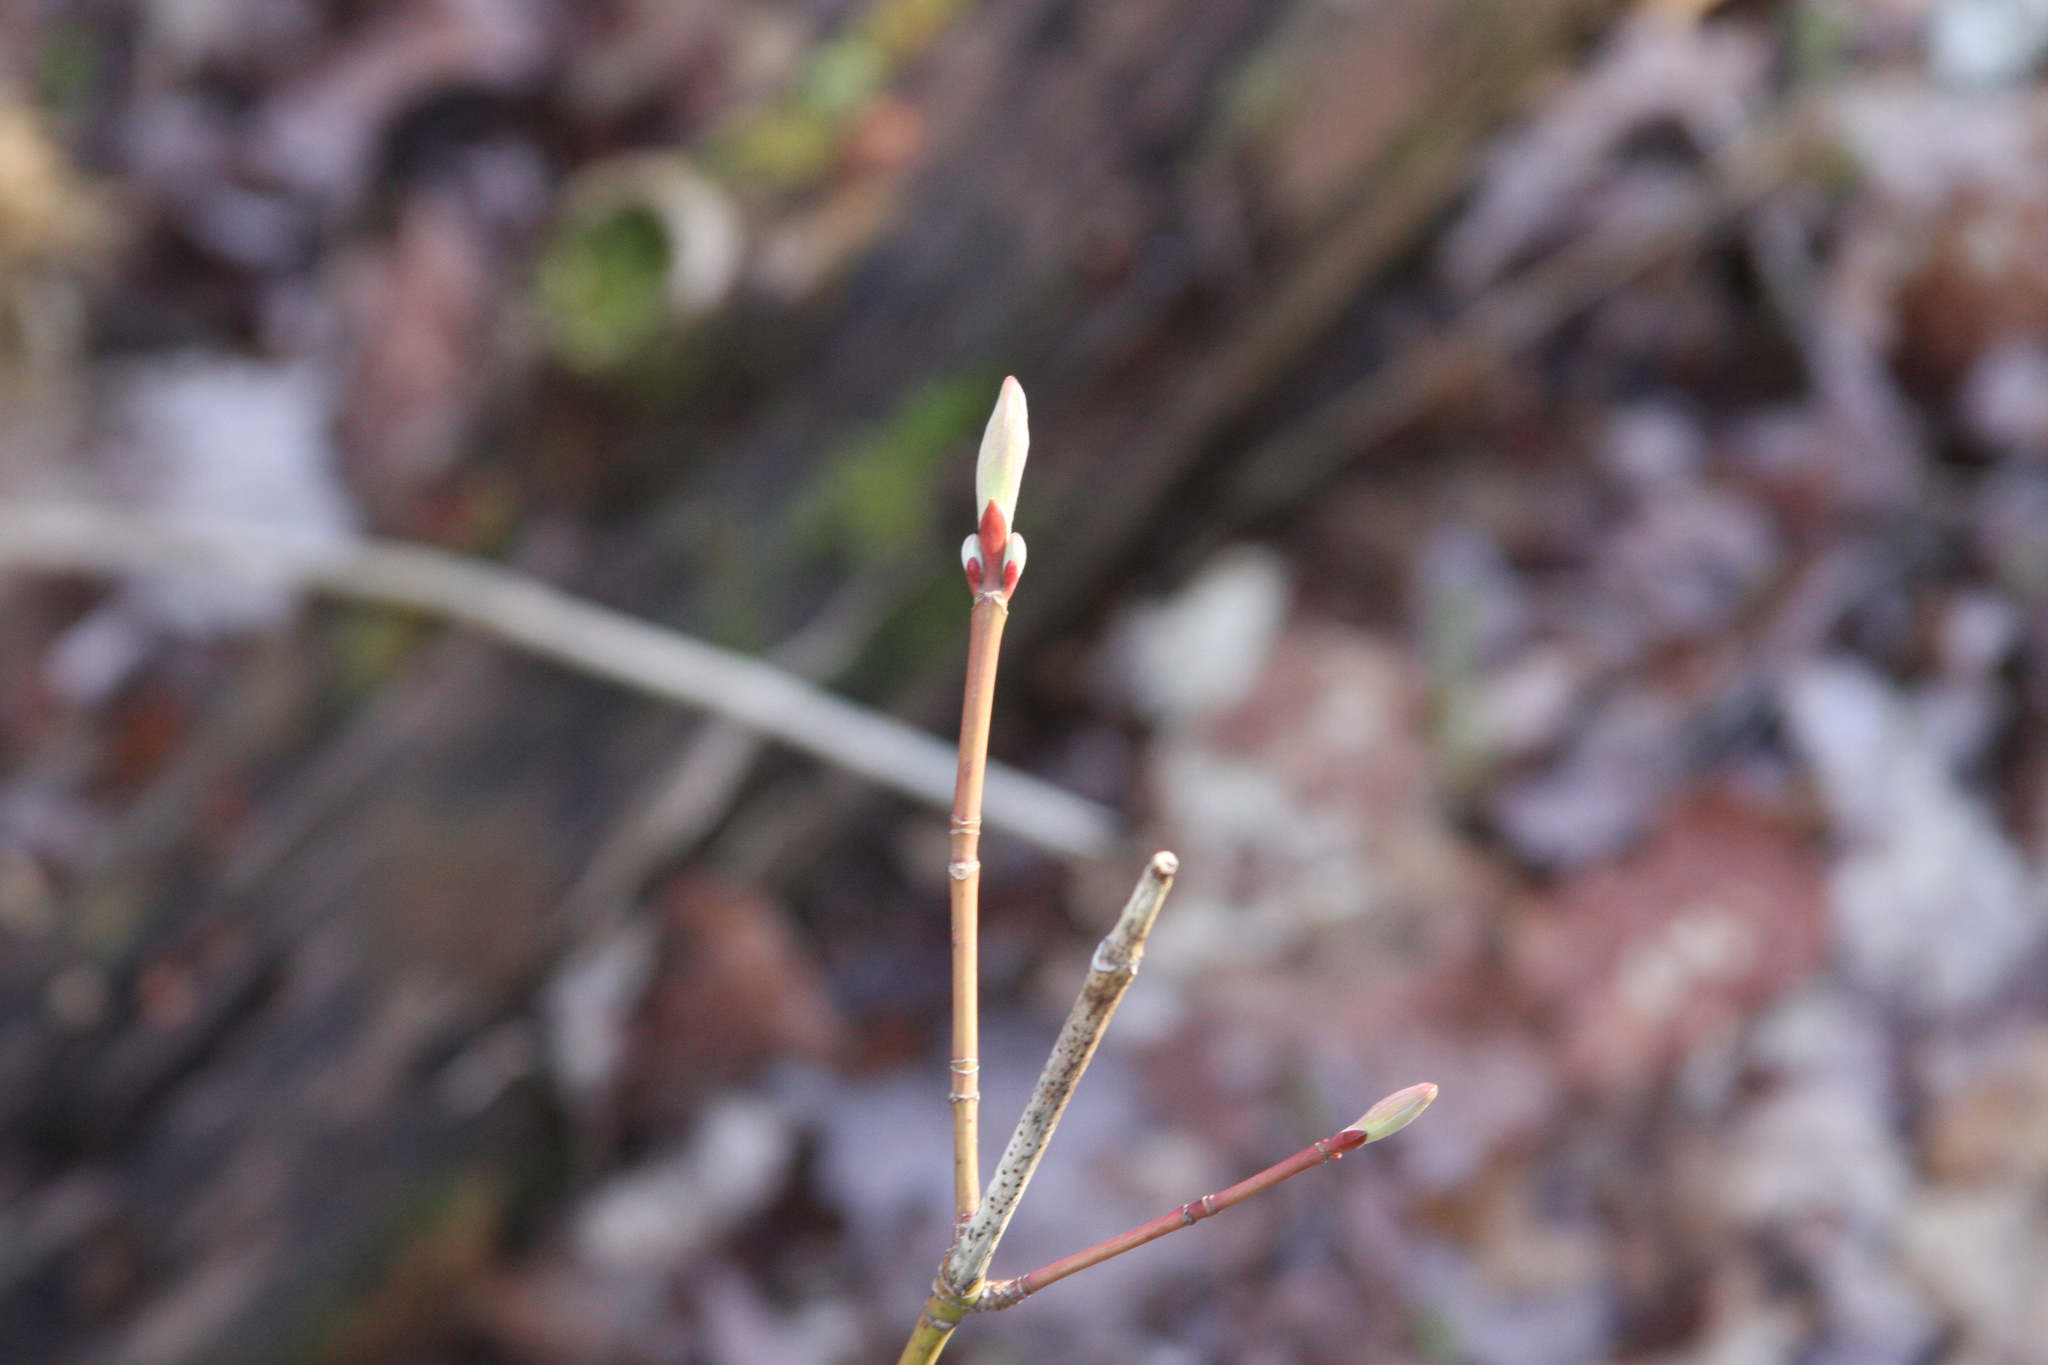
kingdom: Plantae
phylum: Tracheophyta
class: Magnoliopsida
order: Sapindales
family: Sapindaceae
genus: Acer
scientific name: Acer pensylvanicum
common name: Moosewood
